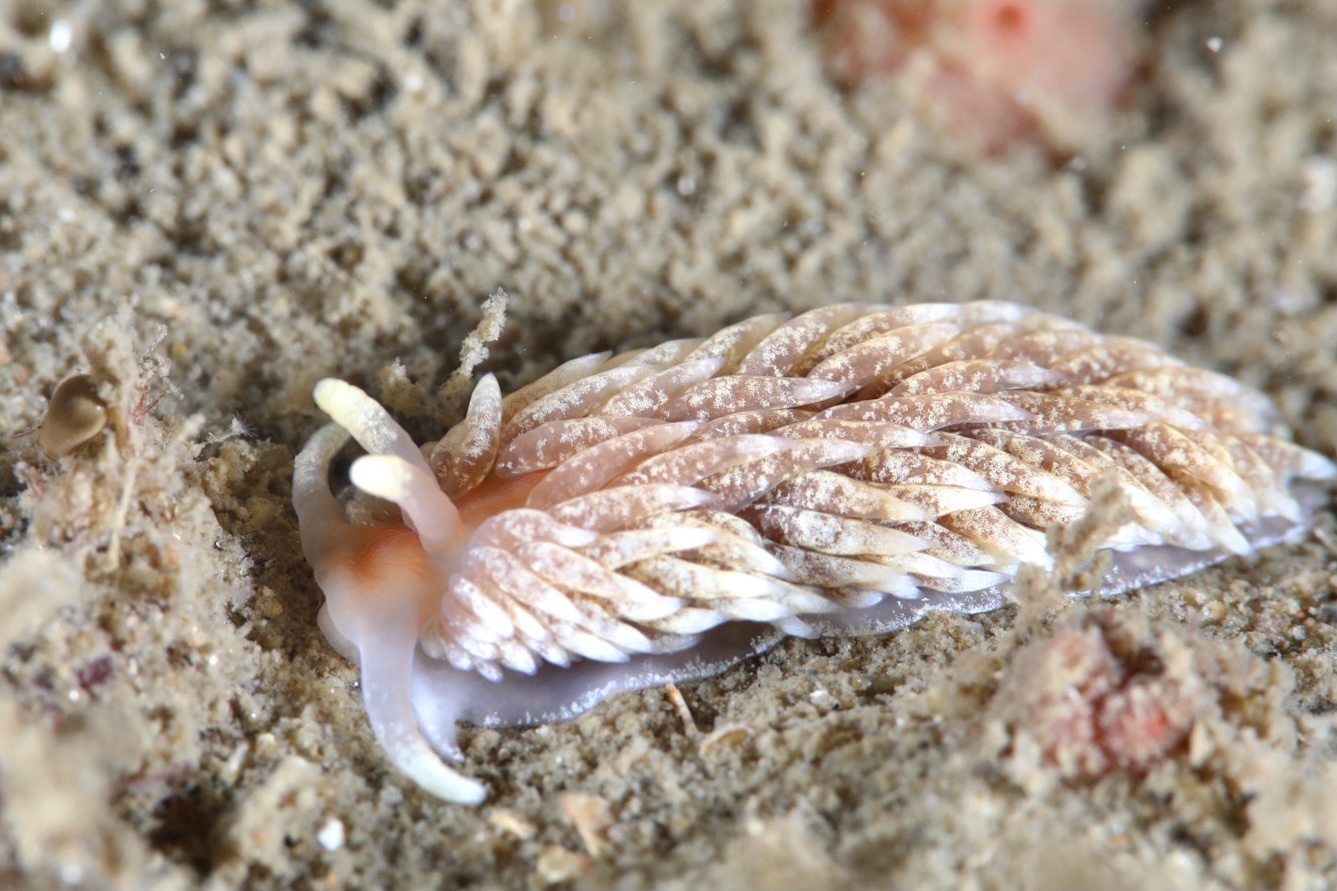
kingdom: Animalia
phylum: Mollusca
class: Gastropoda
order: Nudibranchia
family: Aeolidiidae
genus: Aeolidiella
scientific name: Aeolidiella glauca
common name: Orange-brown aeolid
